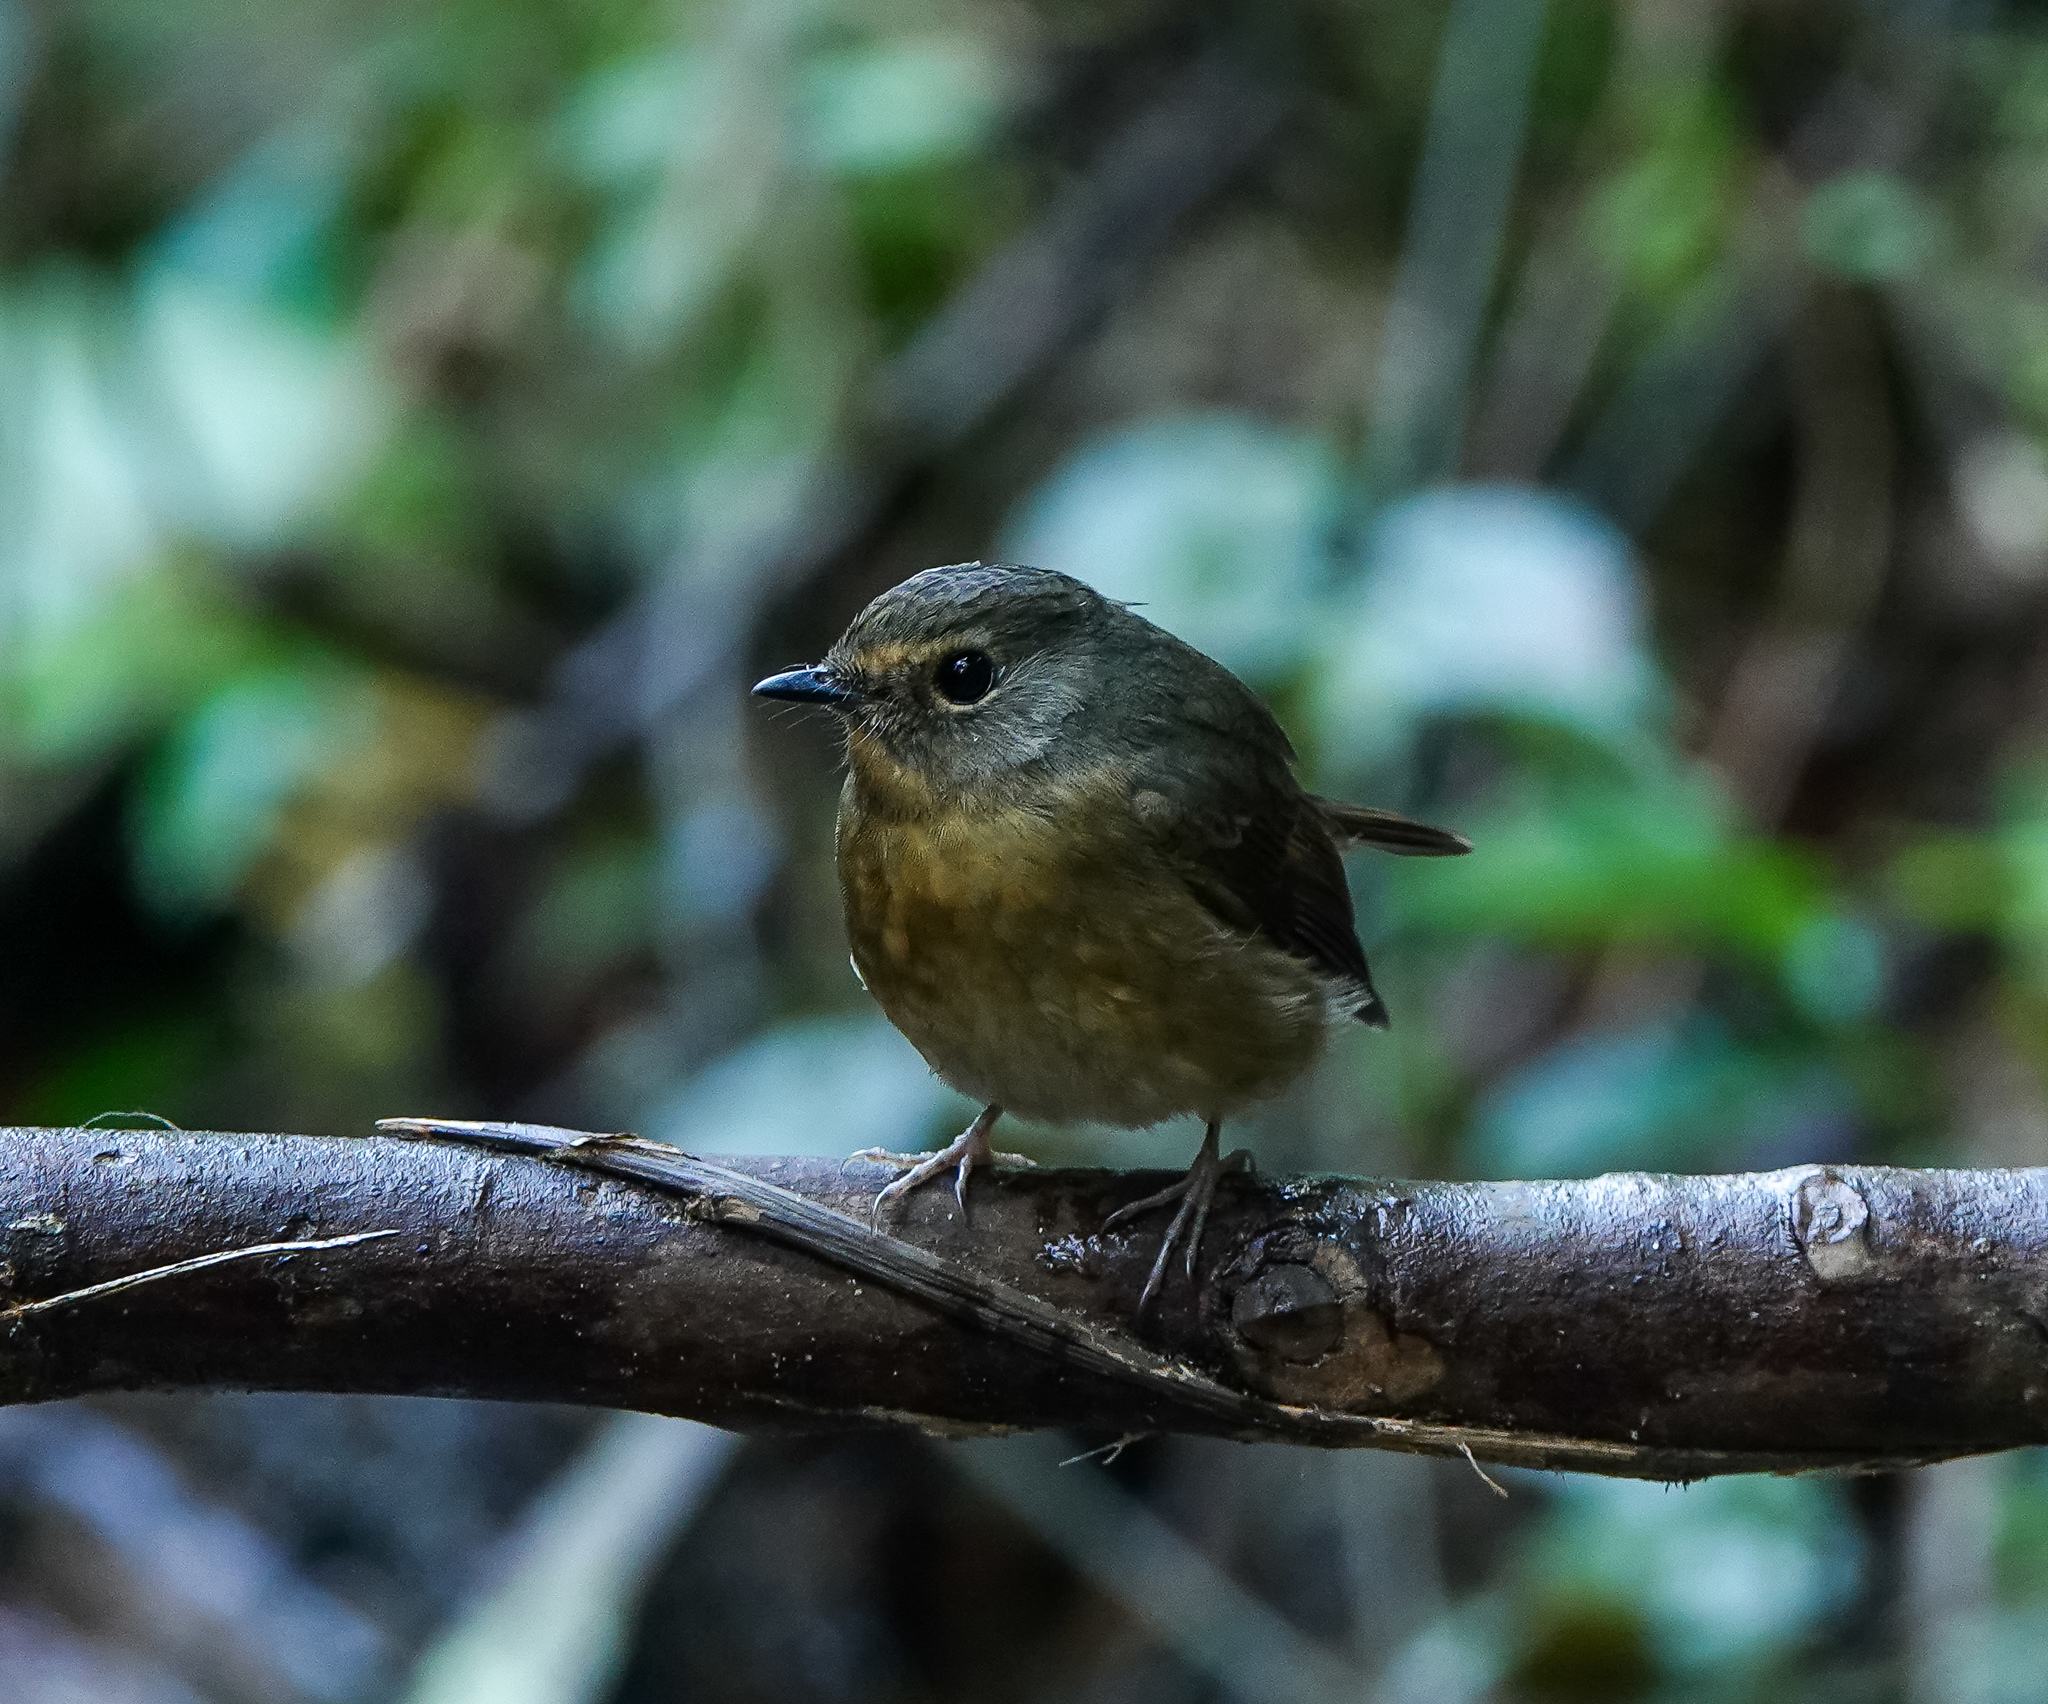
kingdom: Animalia
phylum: Chordata
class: Aves
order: Passeriformes
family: Muscicapidae
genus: Ficedula
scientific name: Ficedula hyperythra
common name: Snowy-browed flycatcher
